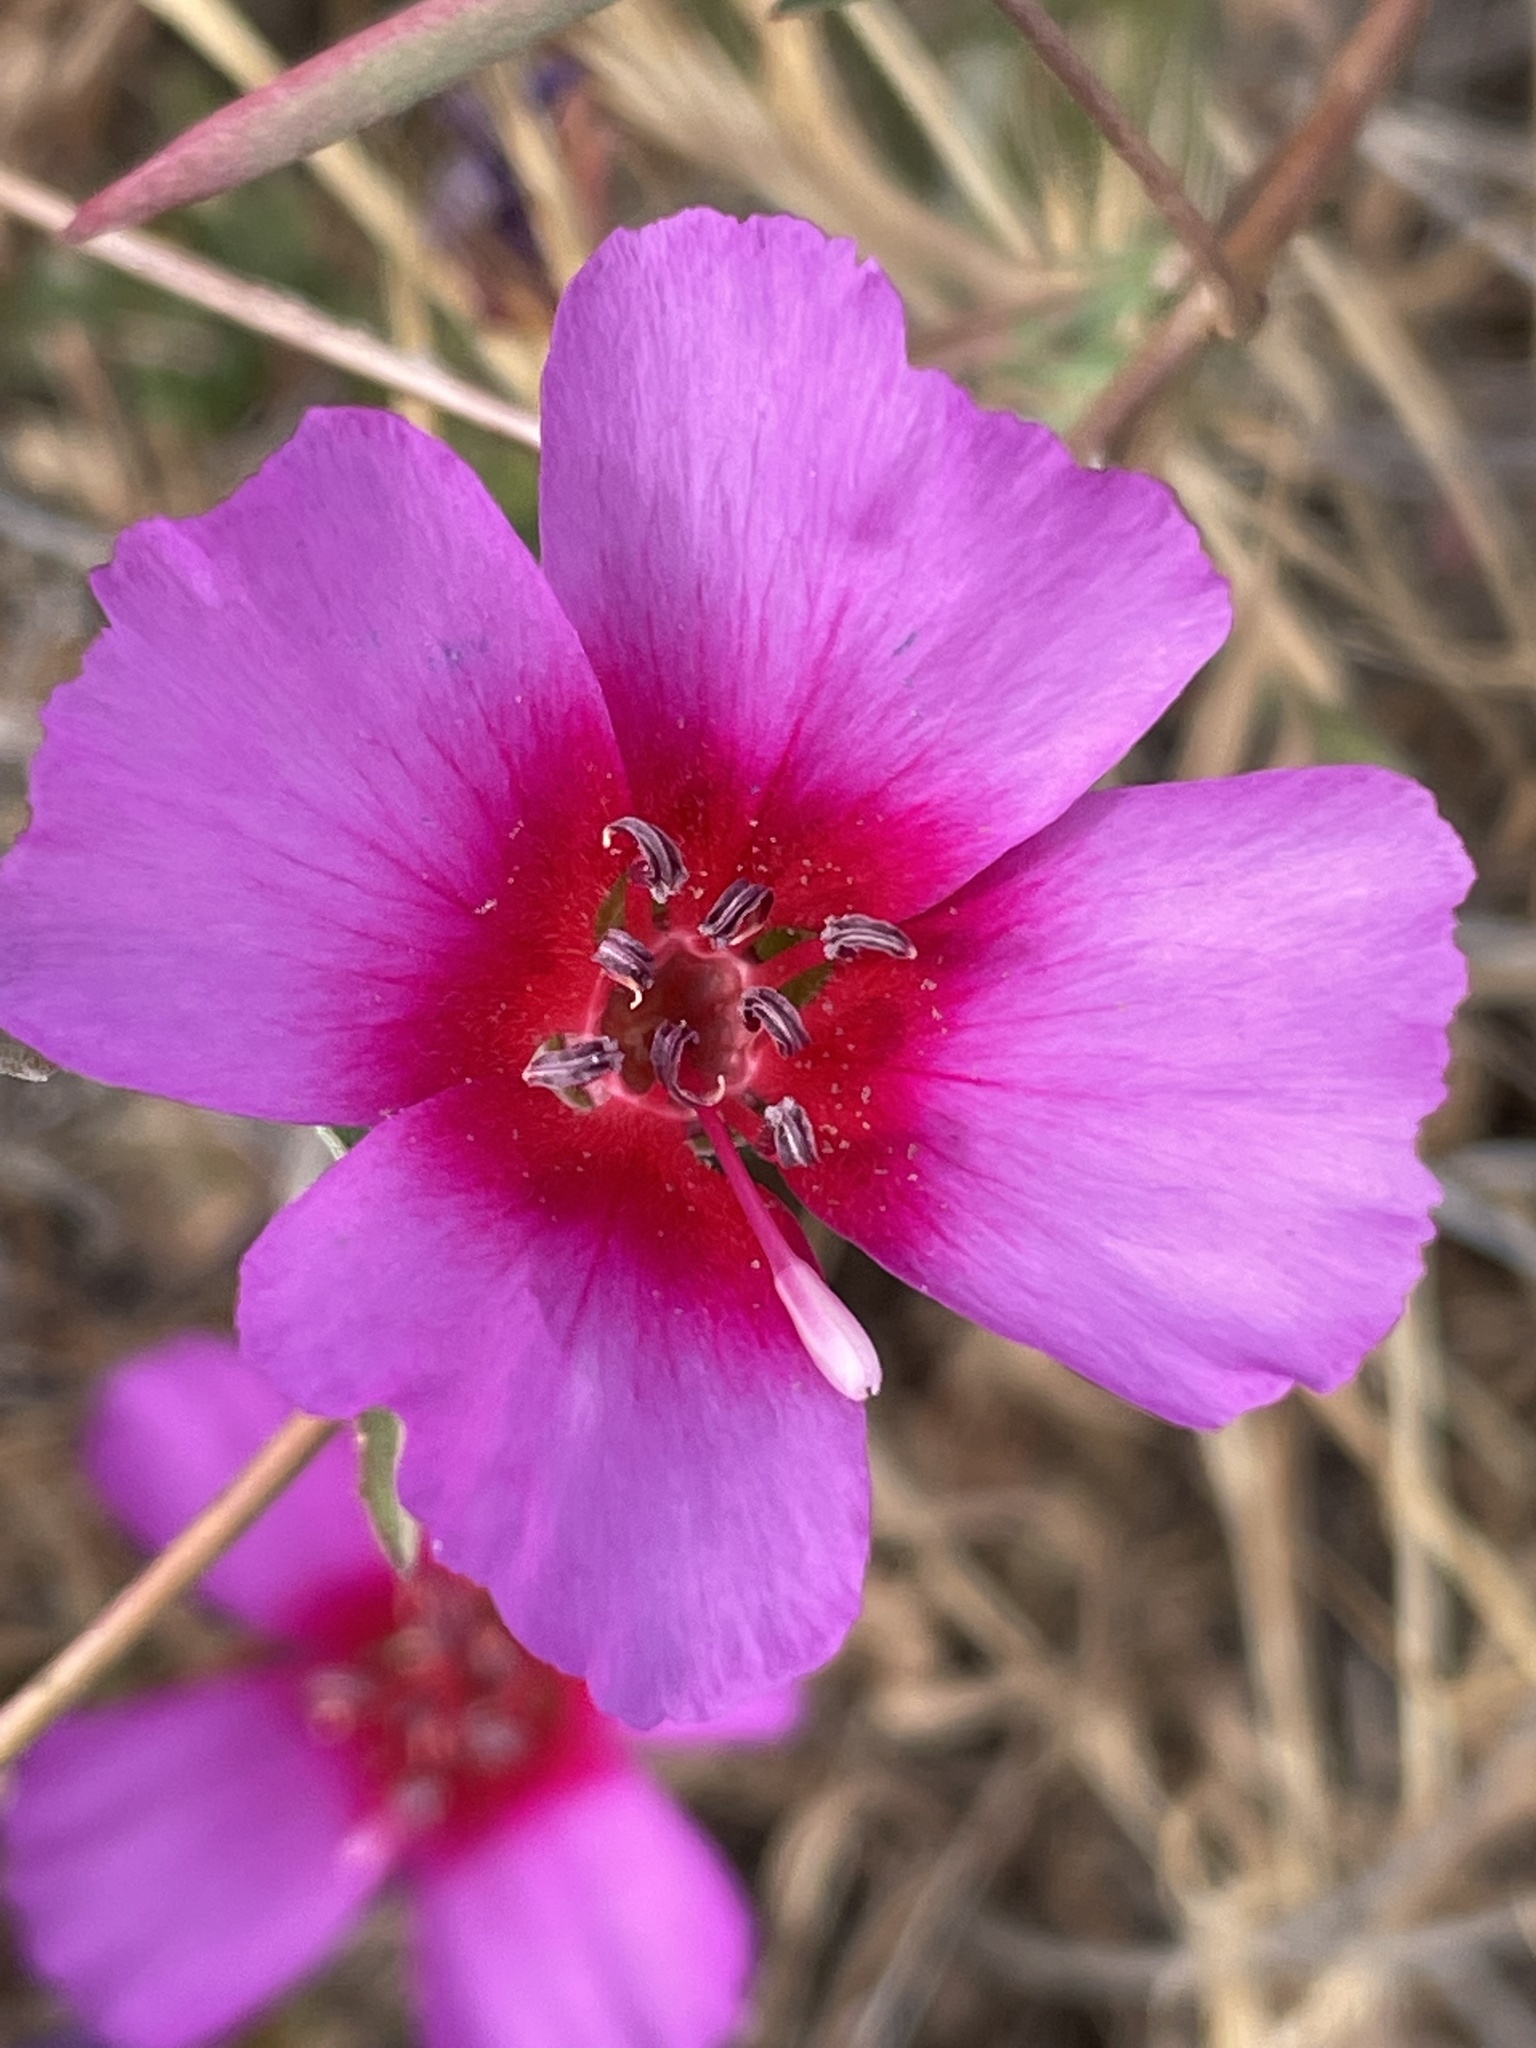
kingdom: Plantae
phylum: Tracheophyta
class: Magnoliopsida
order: Myrtales
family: Onagraceae
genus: Clarkia
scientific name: Clarkia rubicunda
